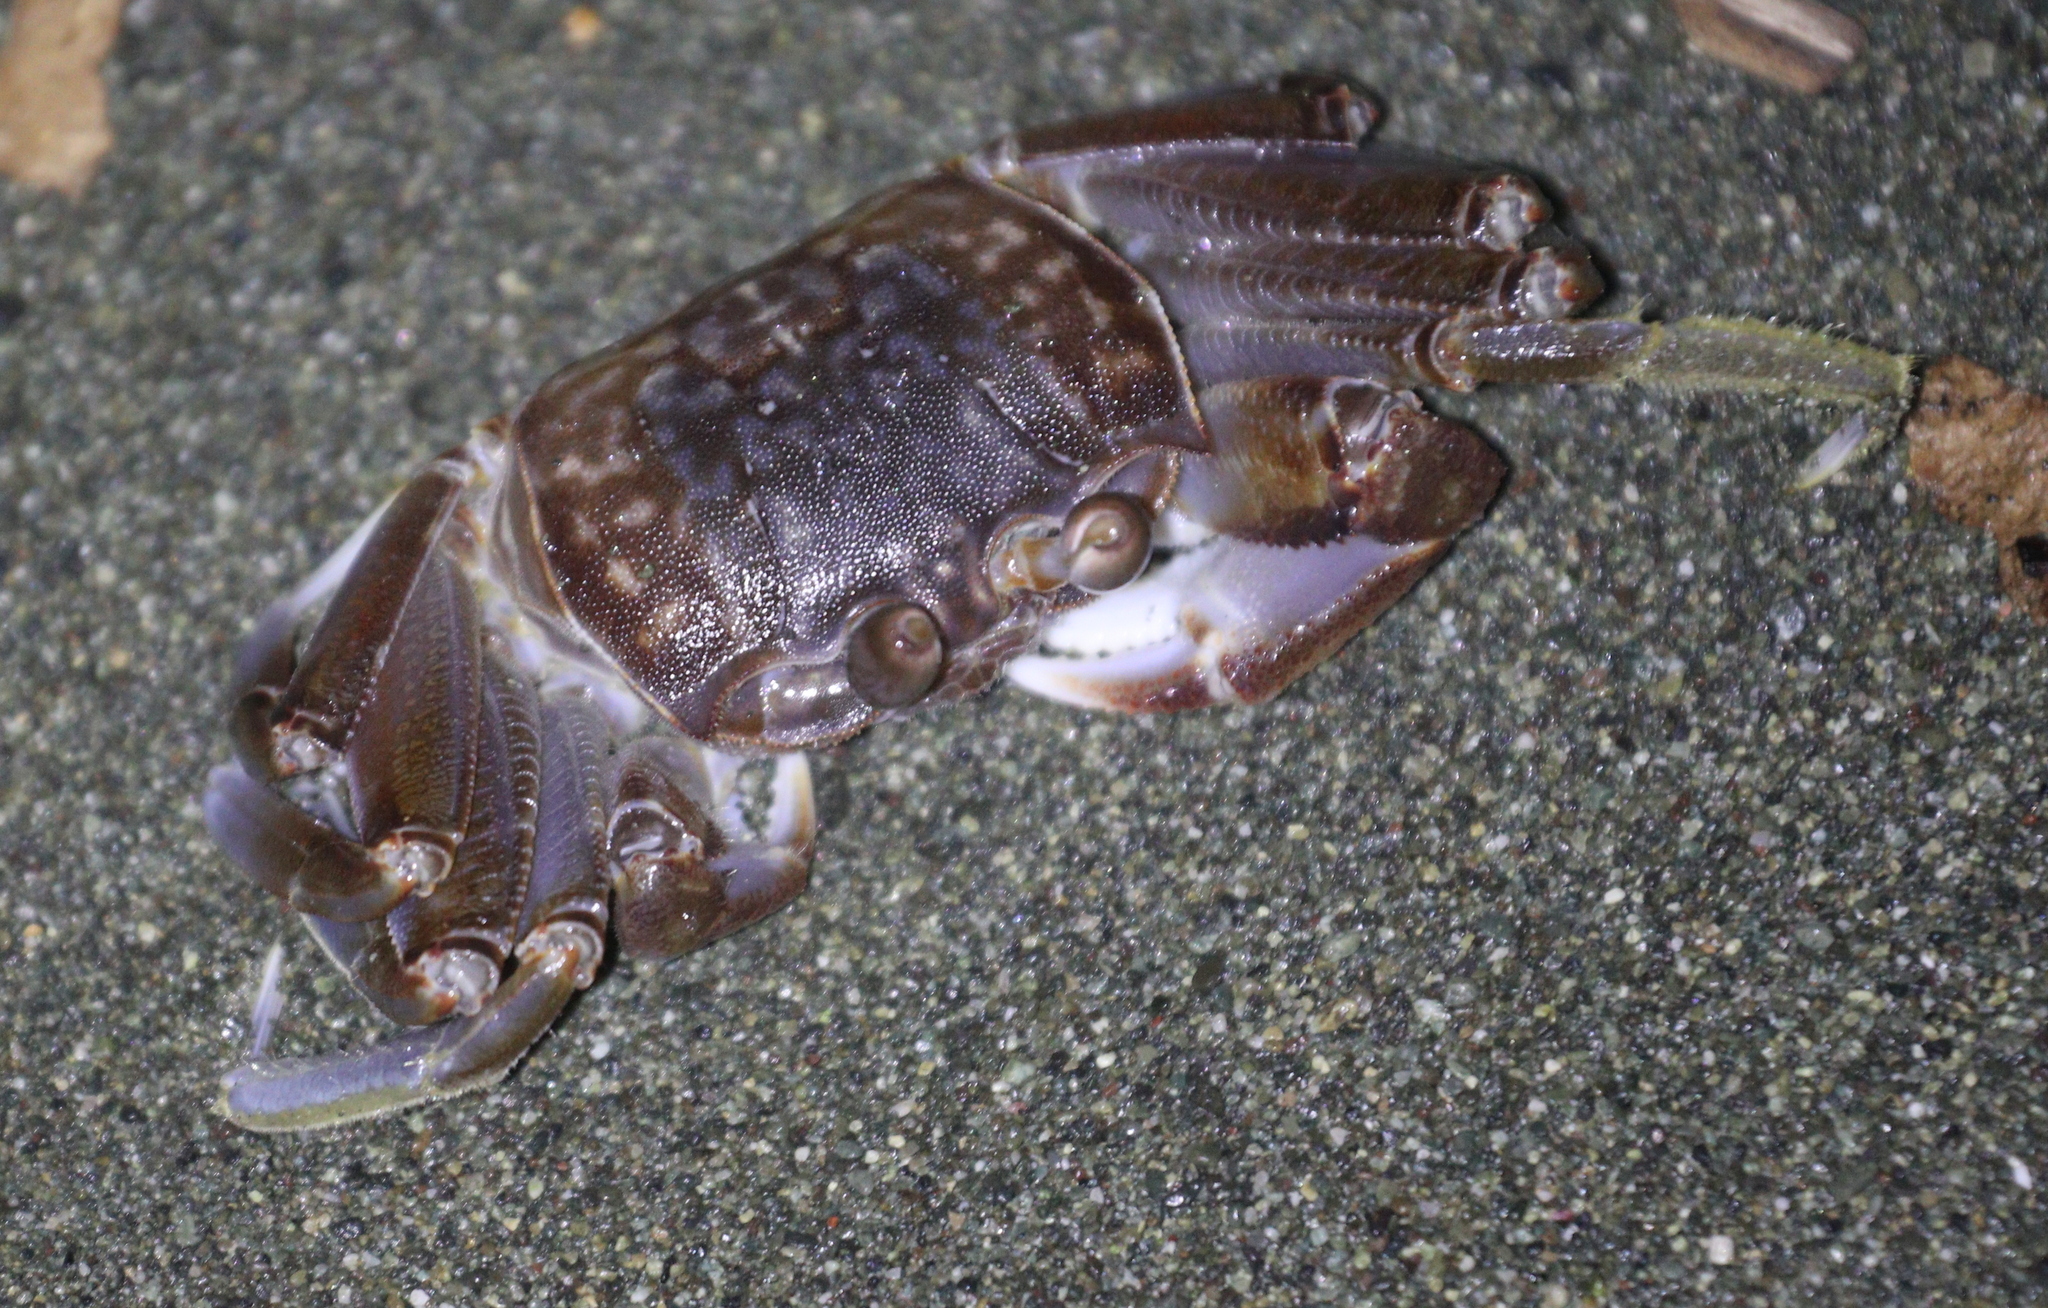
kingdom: Animalia
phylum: Arthropoda
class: Malacostraca
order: Decapoda
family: Ocypodidae
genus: Ocypode
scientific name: Ocypode occidentalis
